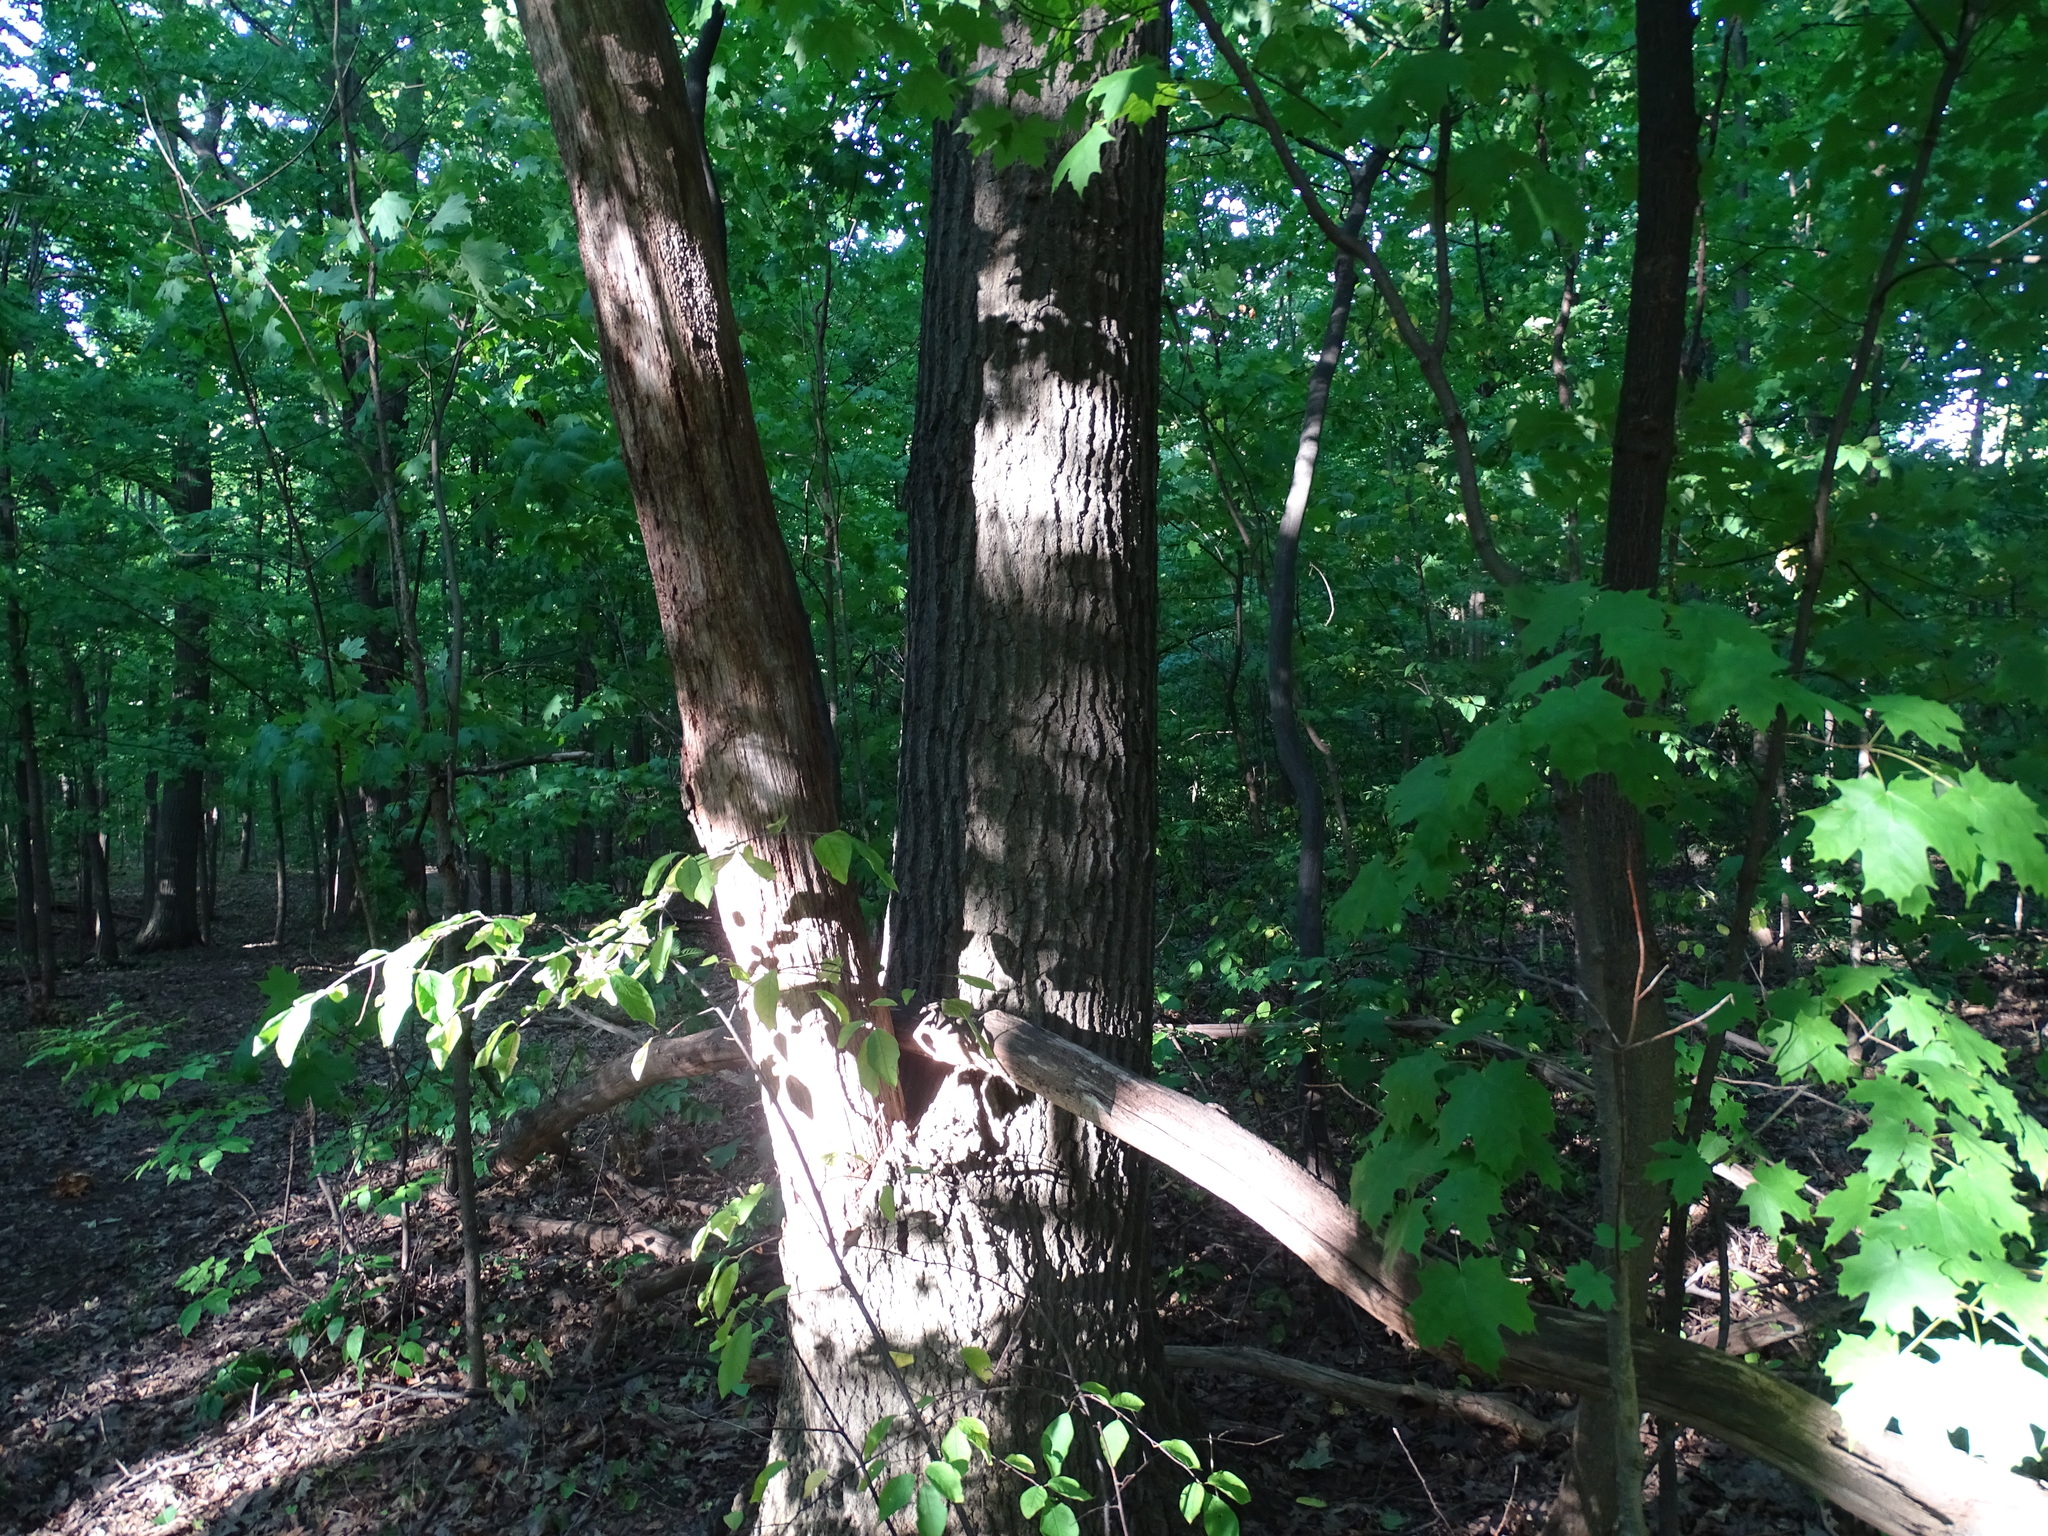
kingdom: Plantae
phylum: Tracheophyta
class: Magnoliopsida
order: Fagales
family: Fagaceae
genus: Quercus
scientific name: Quercus rubra
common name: Red oak
